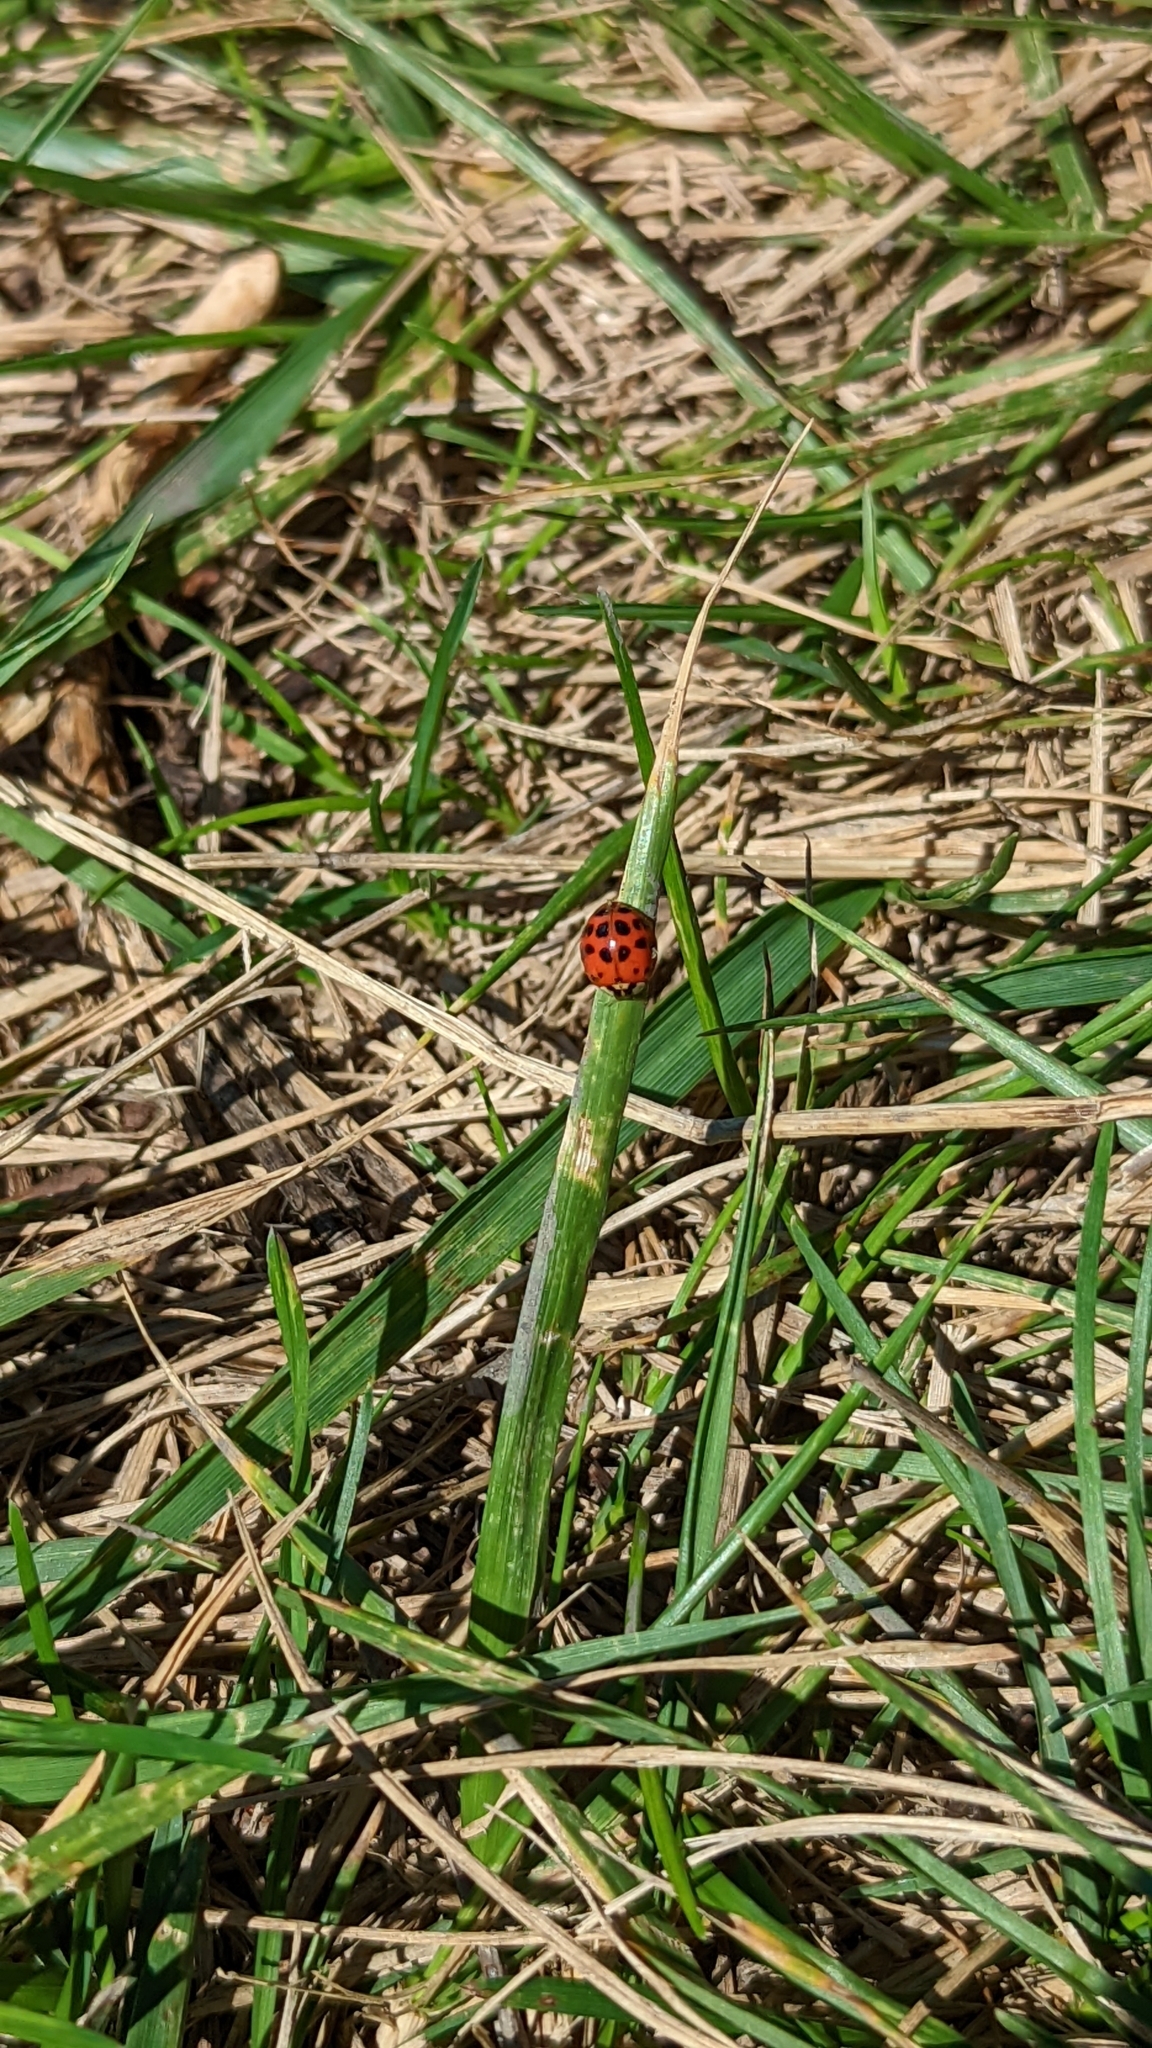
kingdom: Animalia
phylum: Arthropoda
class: Insecta
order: Coleoptera
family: Coccinellidae
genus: Harmonia
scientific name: Harmonia axyridis
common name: Harlequin ladybird
